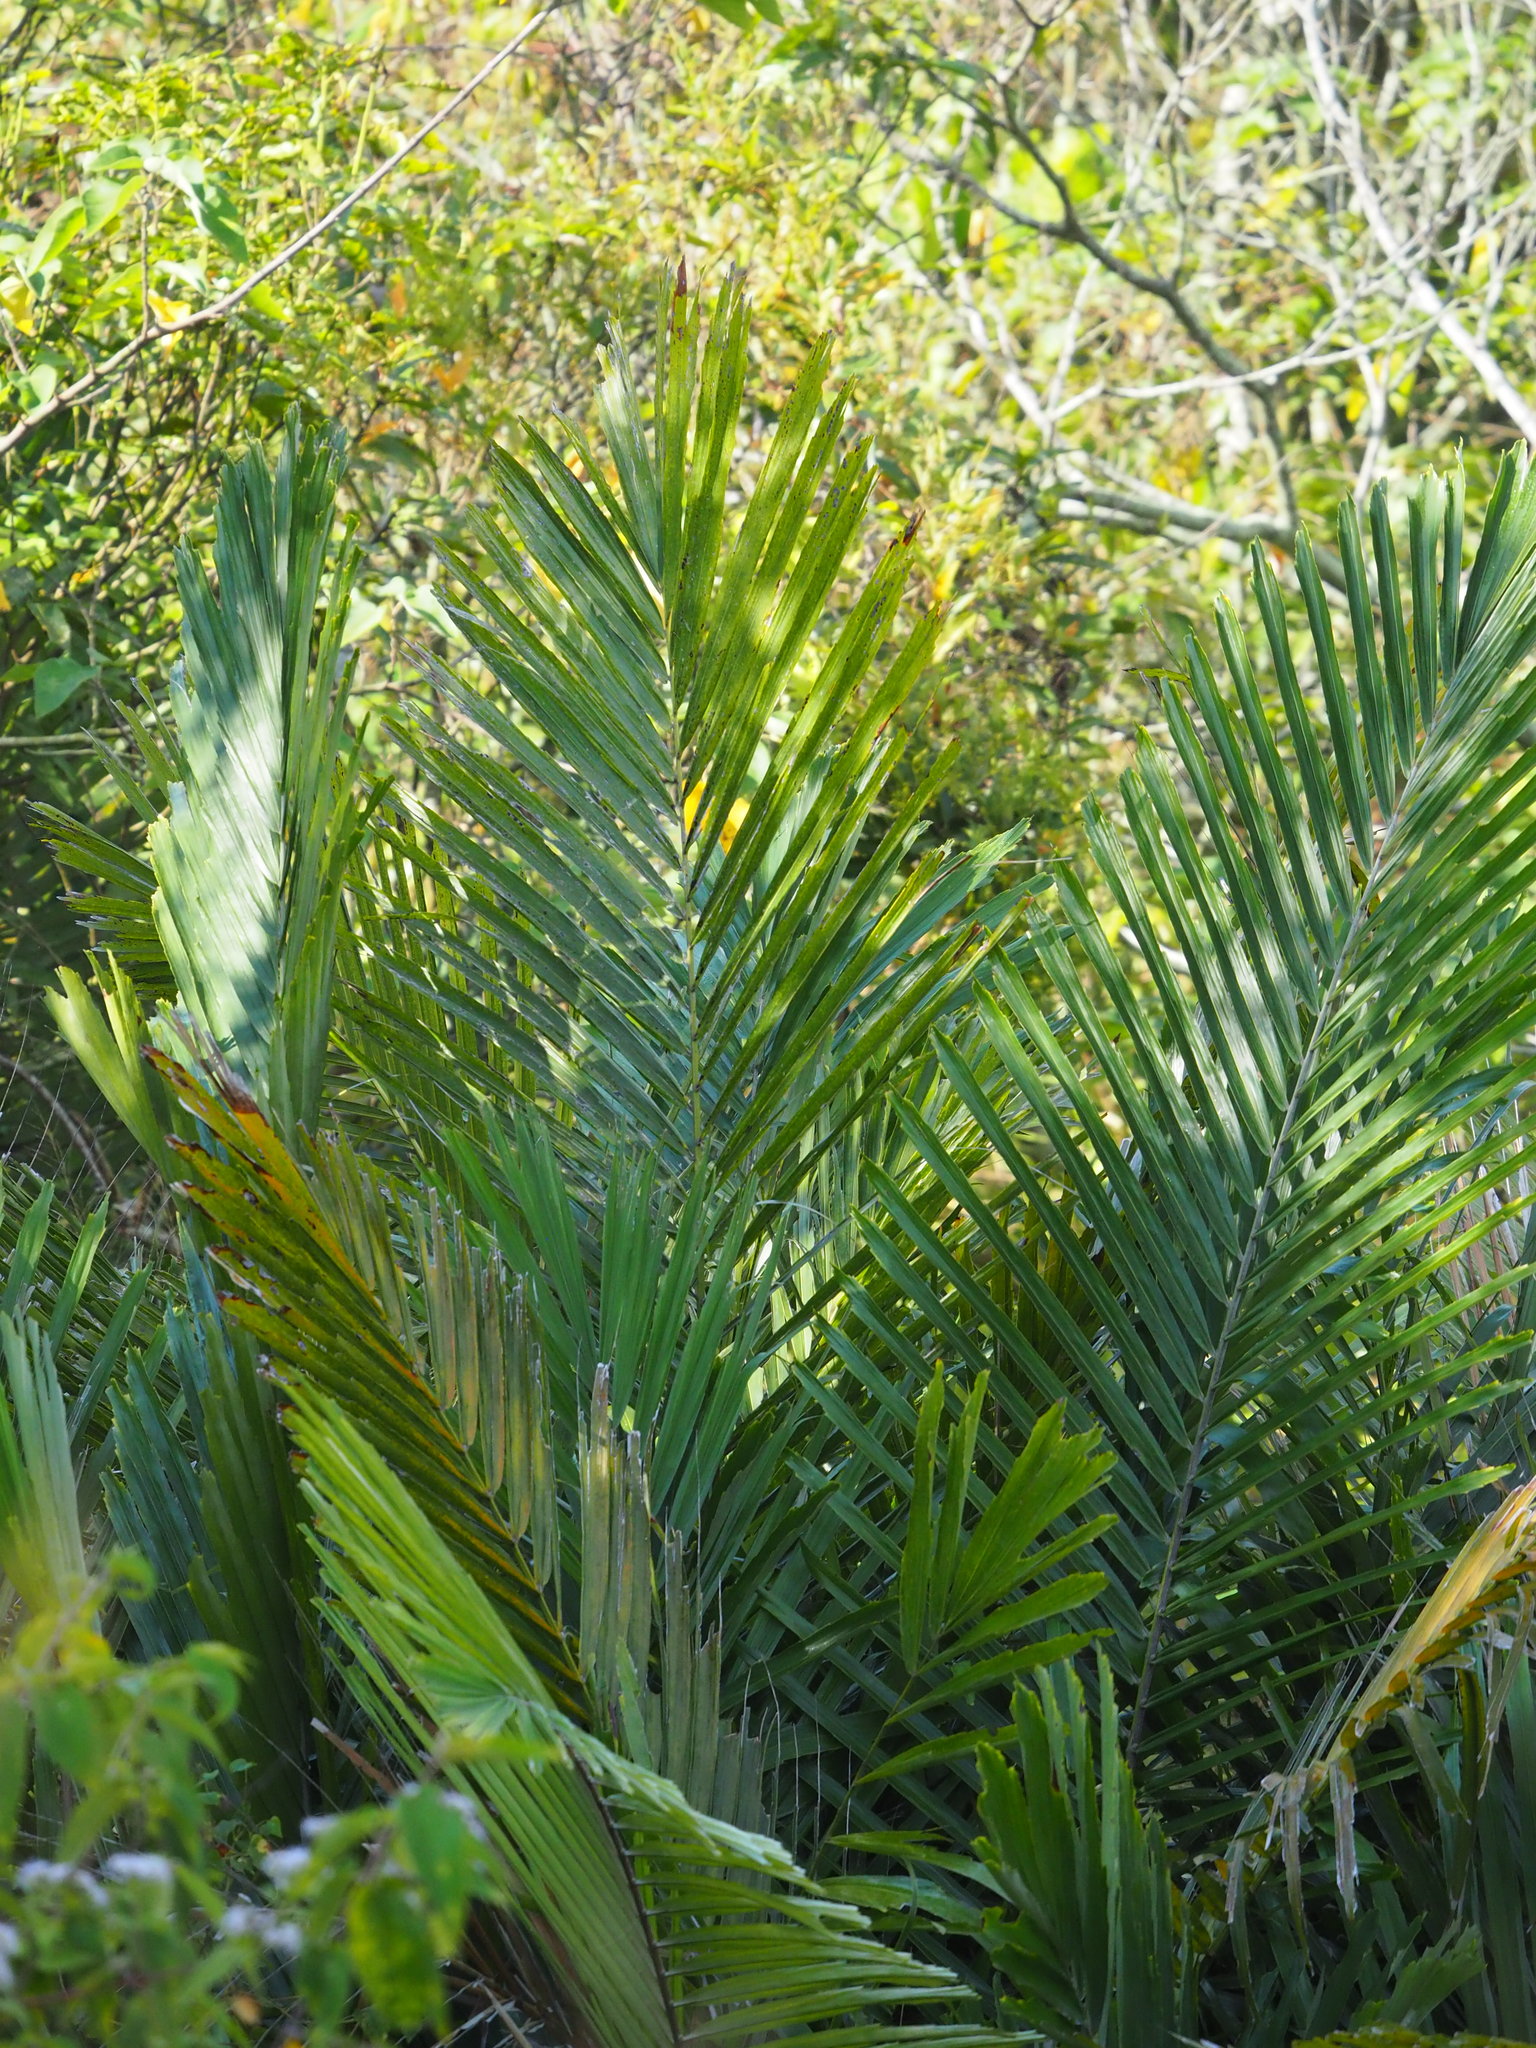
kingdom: Plantae
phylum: Tracheophyta
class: Liliopsida
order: Arecales
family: Arecaceae
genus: Arenga
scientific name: Arenga engleri
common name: Formosan sugar palm
